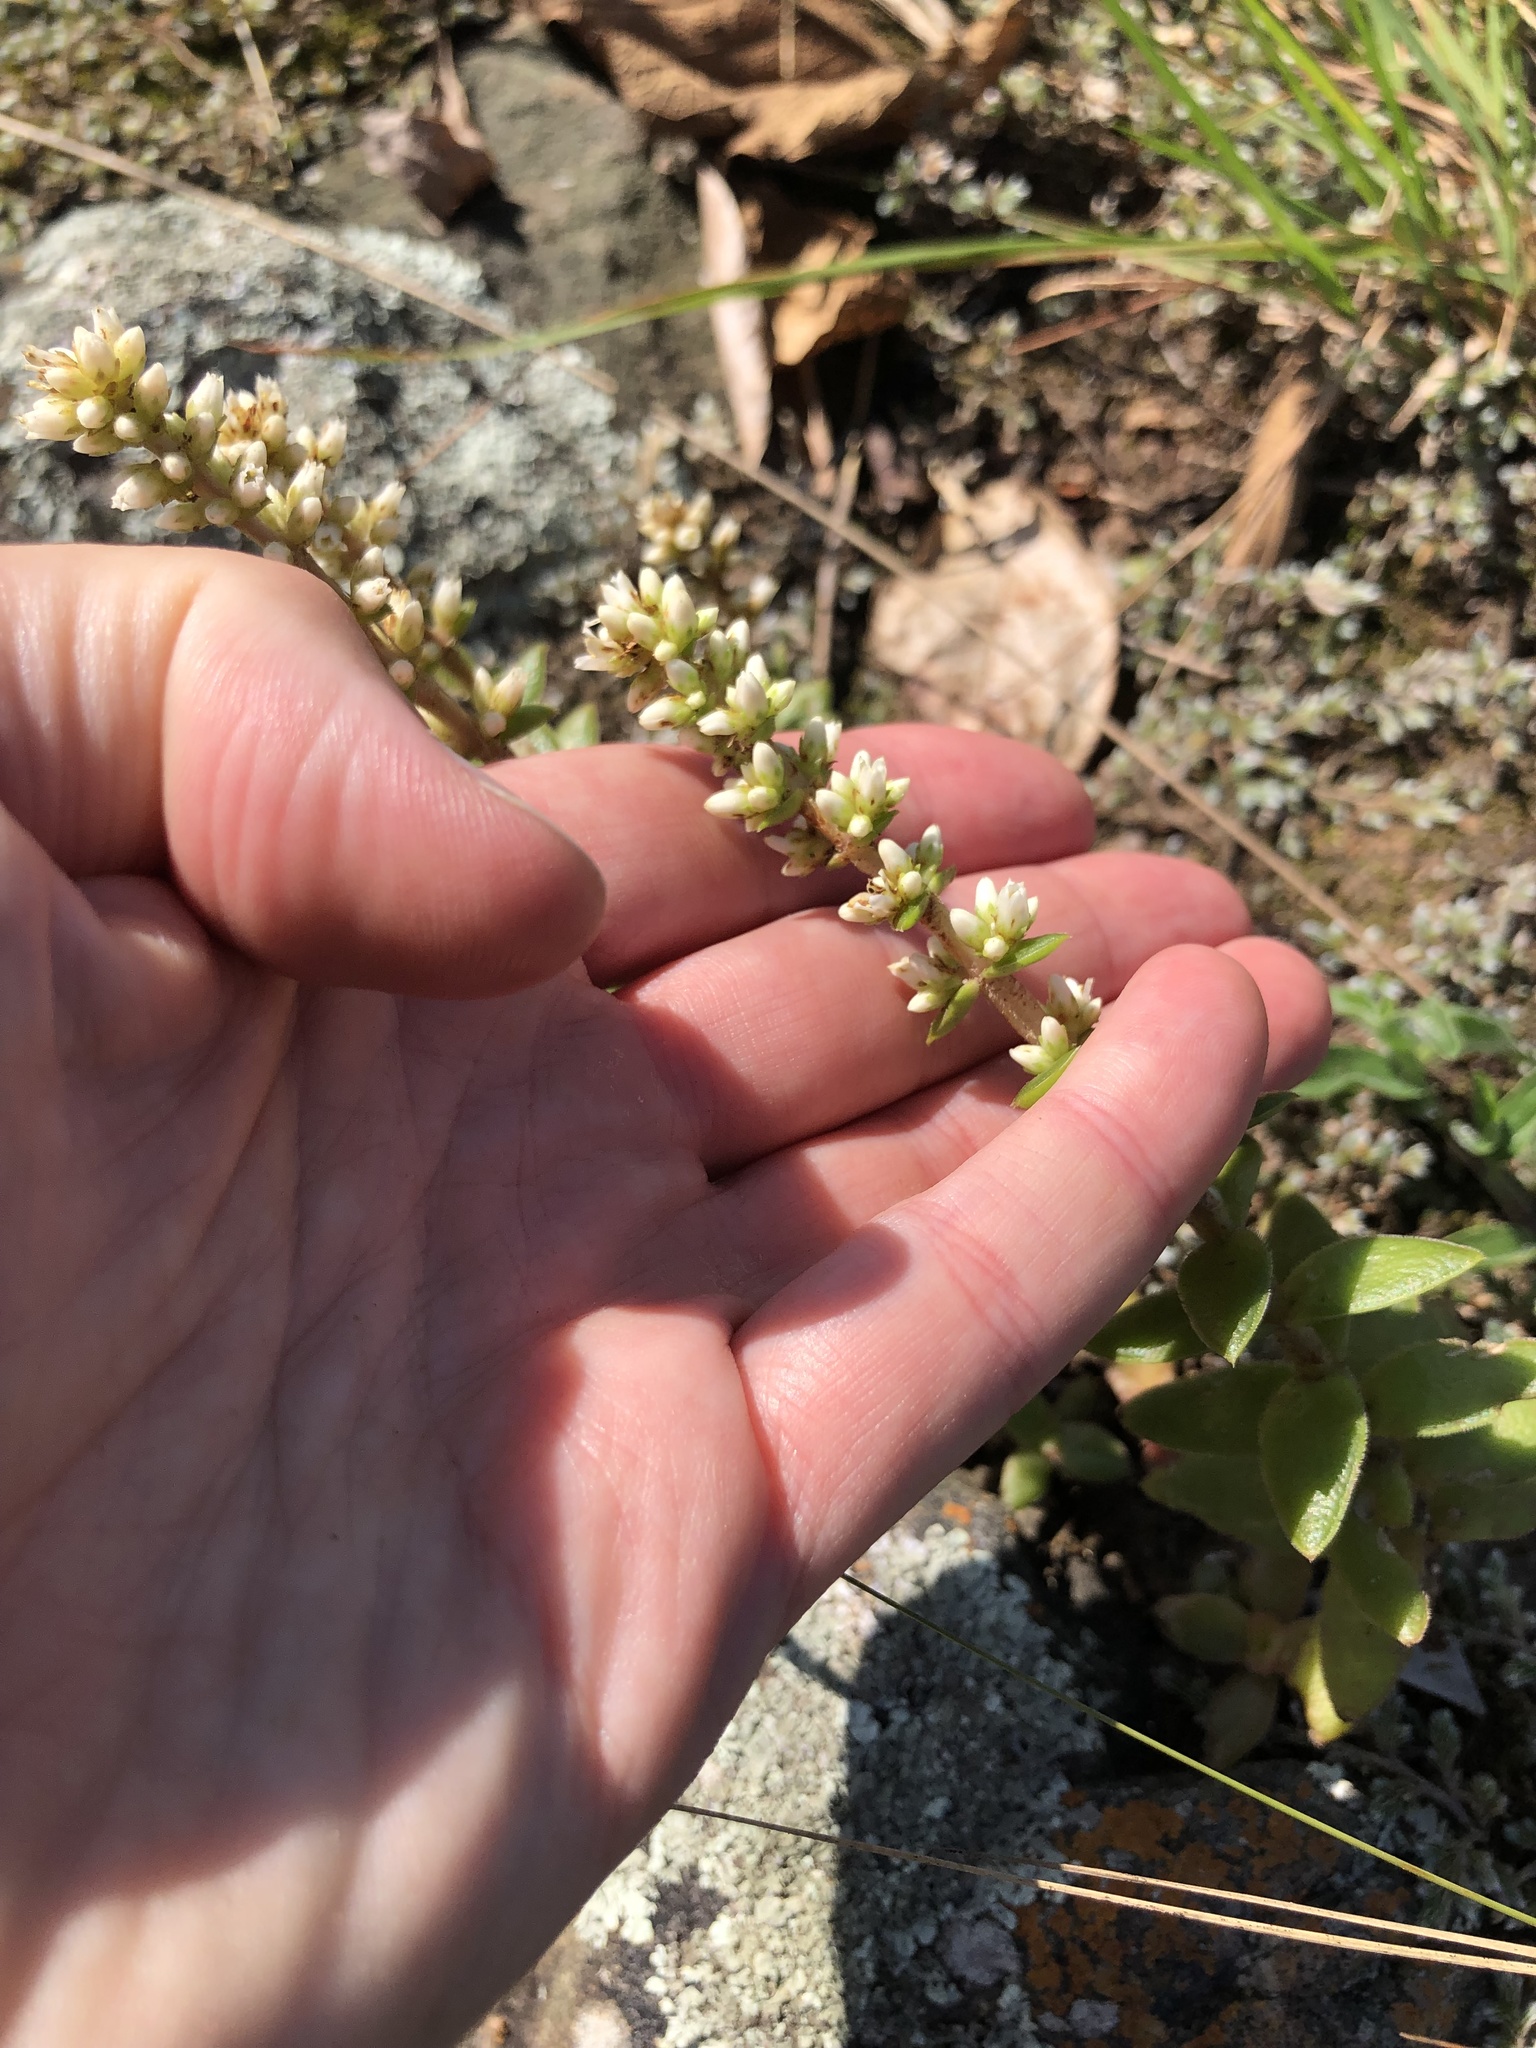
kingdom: Plantae
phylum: Tracheophyta
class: Magnoliopsida
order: Saxifragales
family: Crassulaceae
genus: Crassula
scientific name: Crassula capitella
